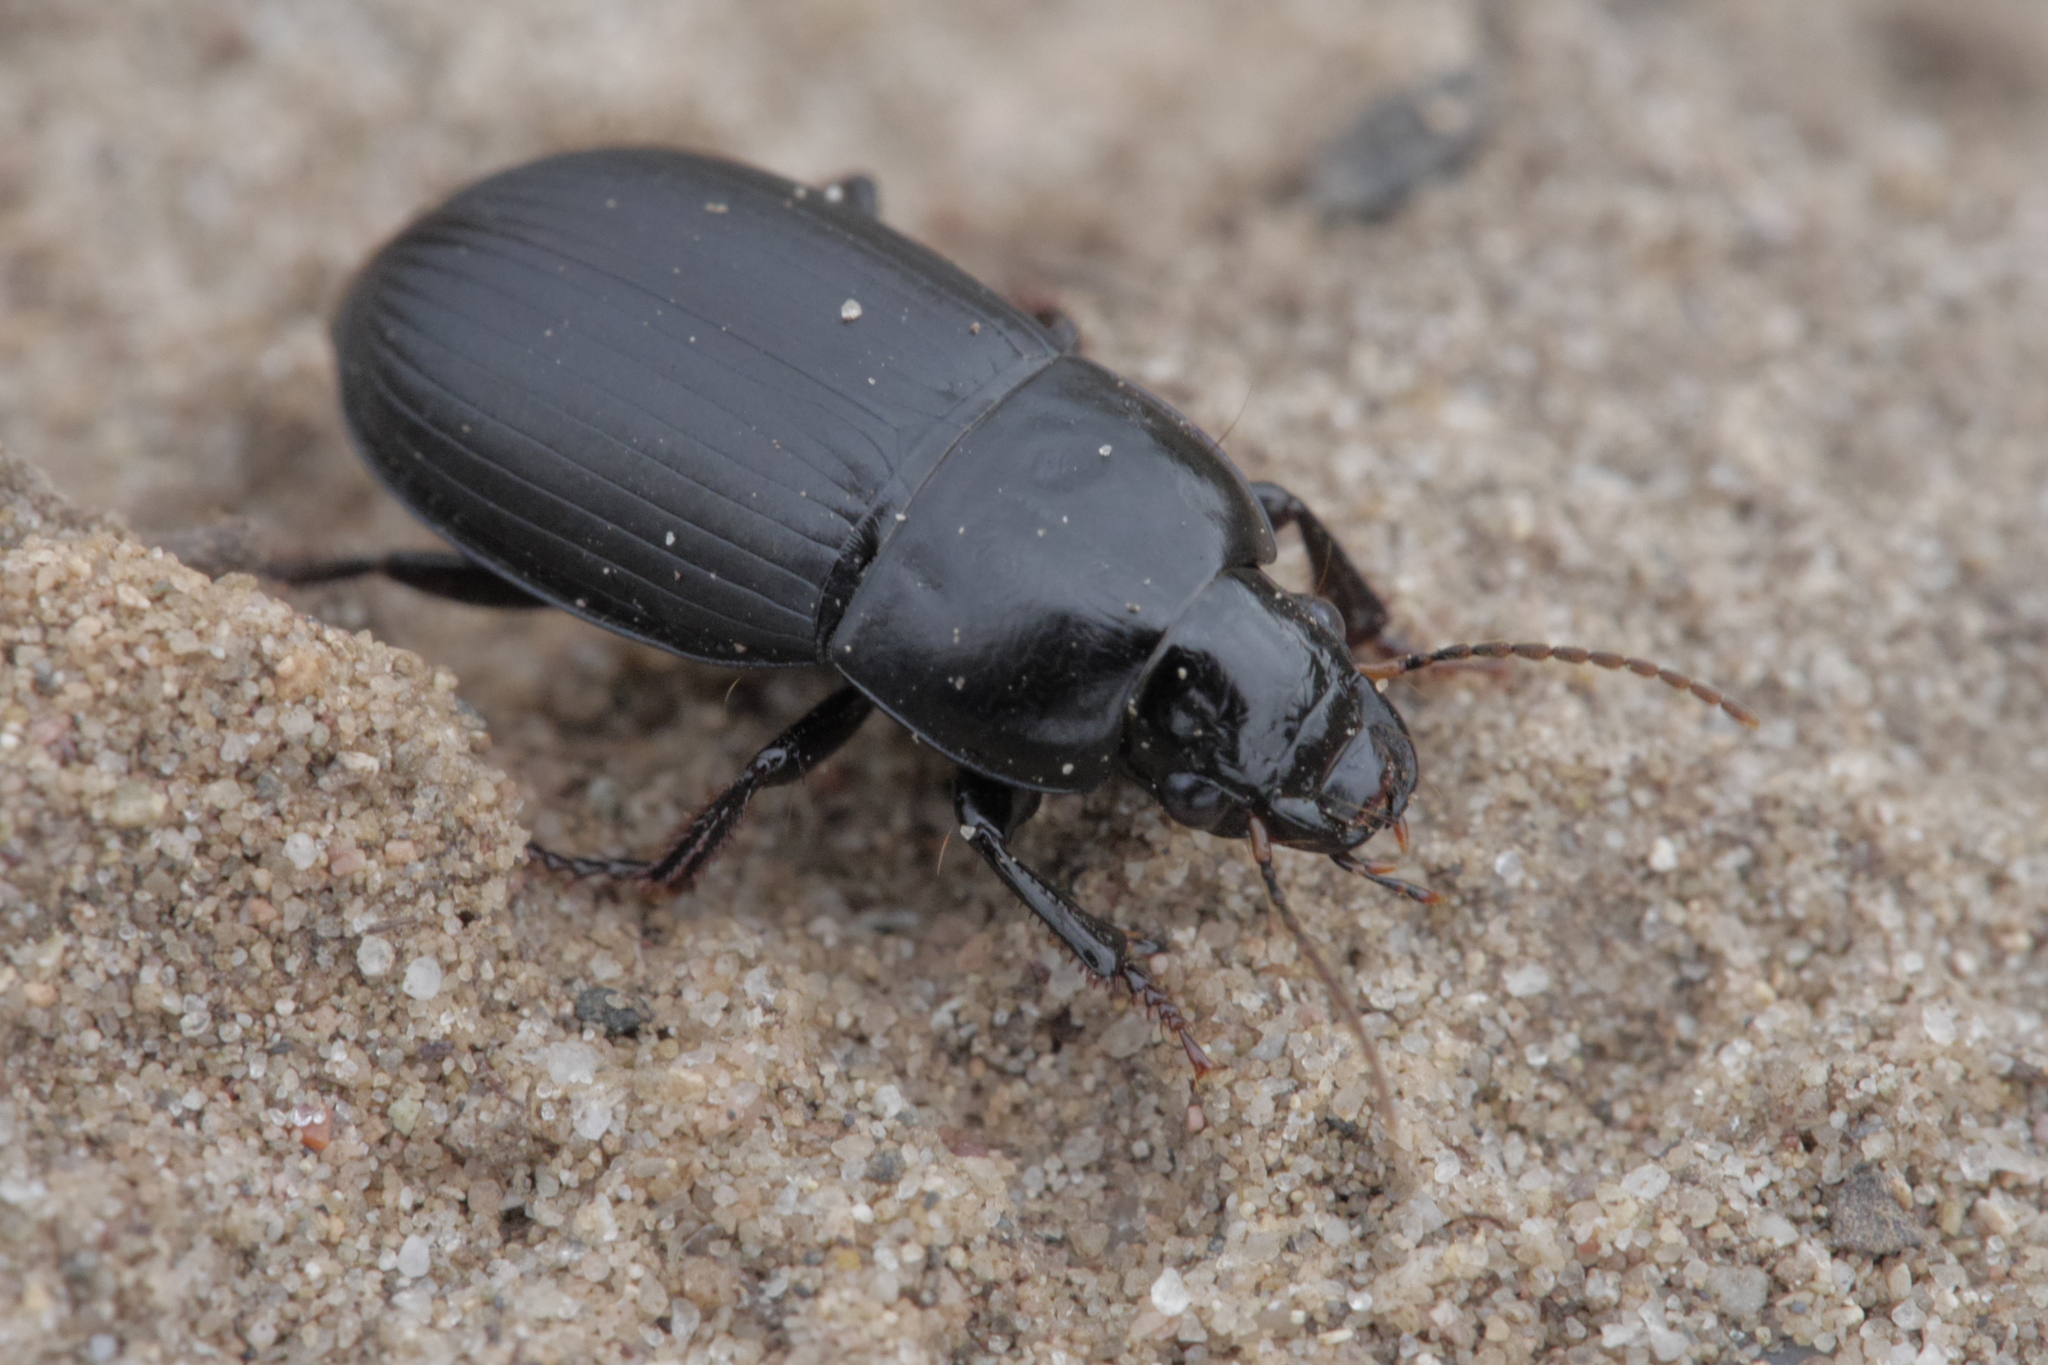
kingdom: Animalia
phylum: Arthropoda
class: Insecta
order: Coleoptera
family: Carabidae
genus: Harpalus
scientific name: Harpalus serripes
